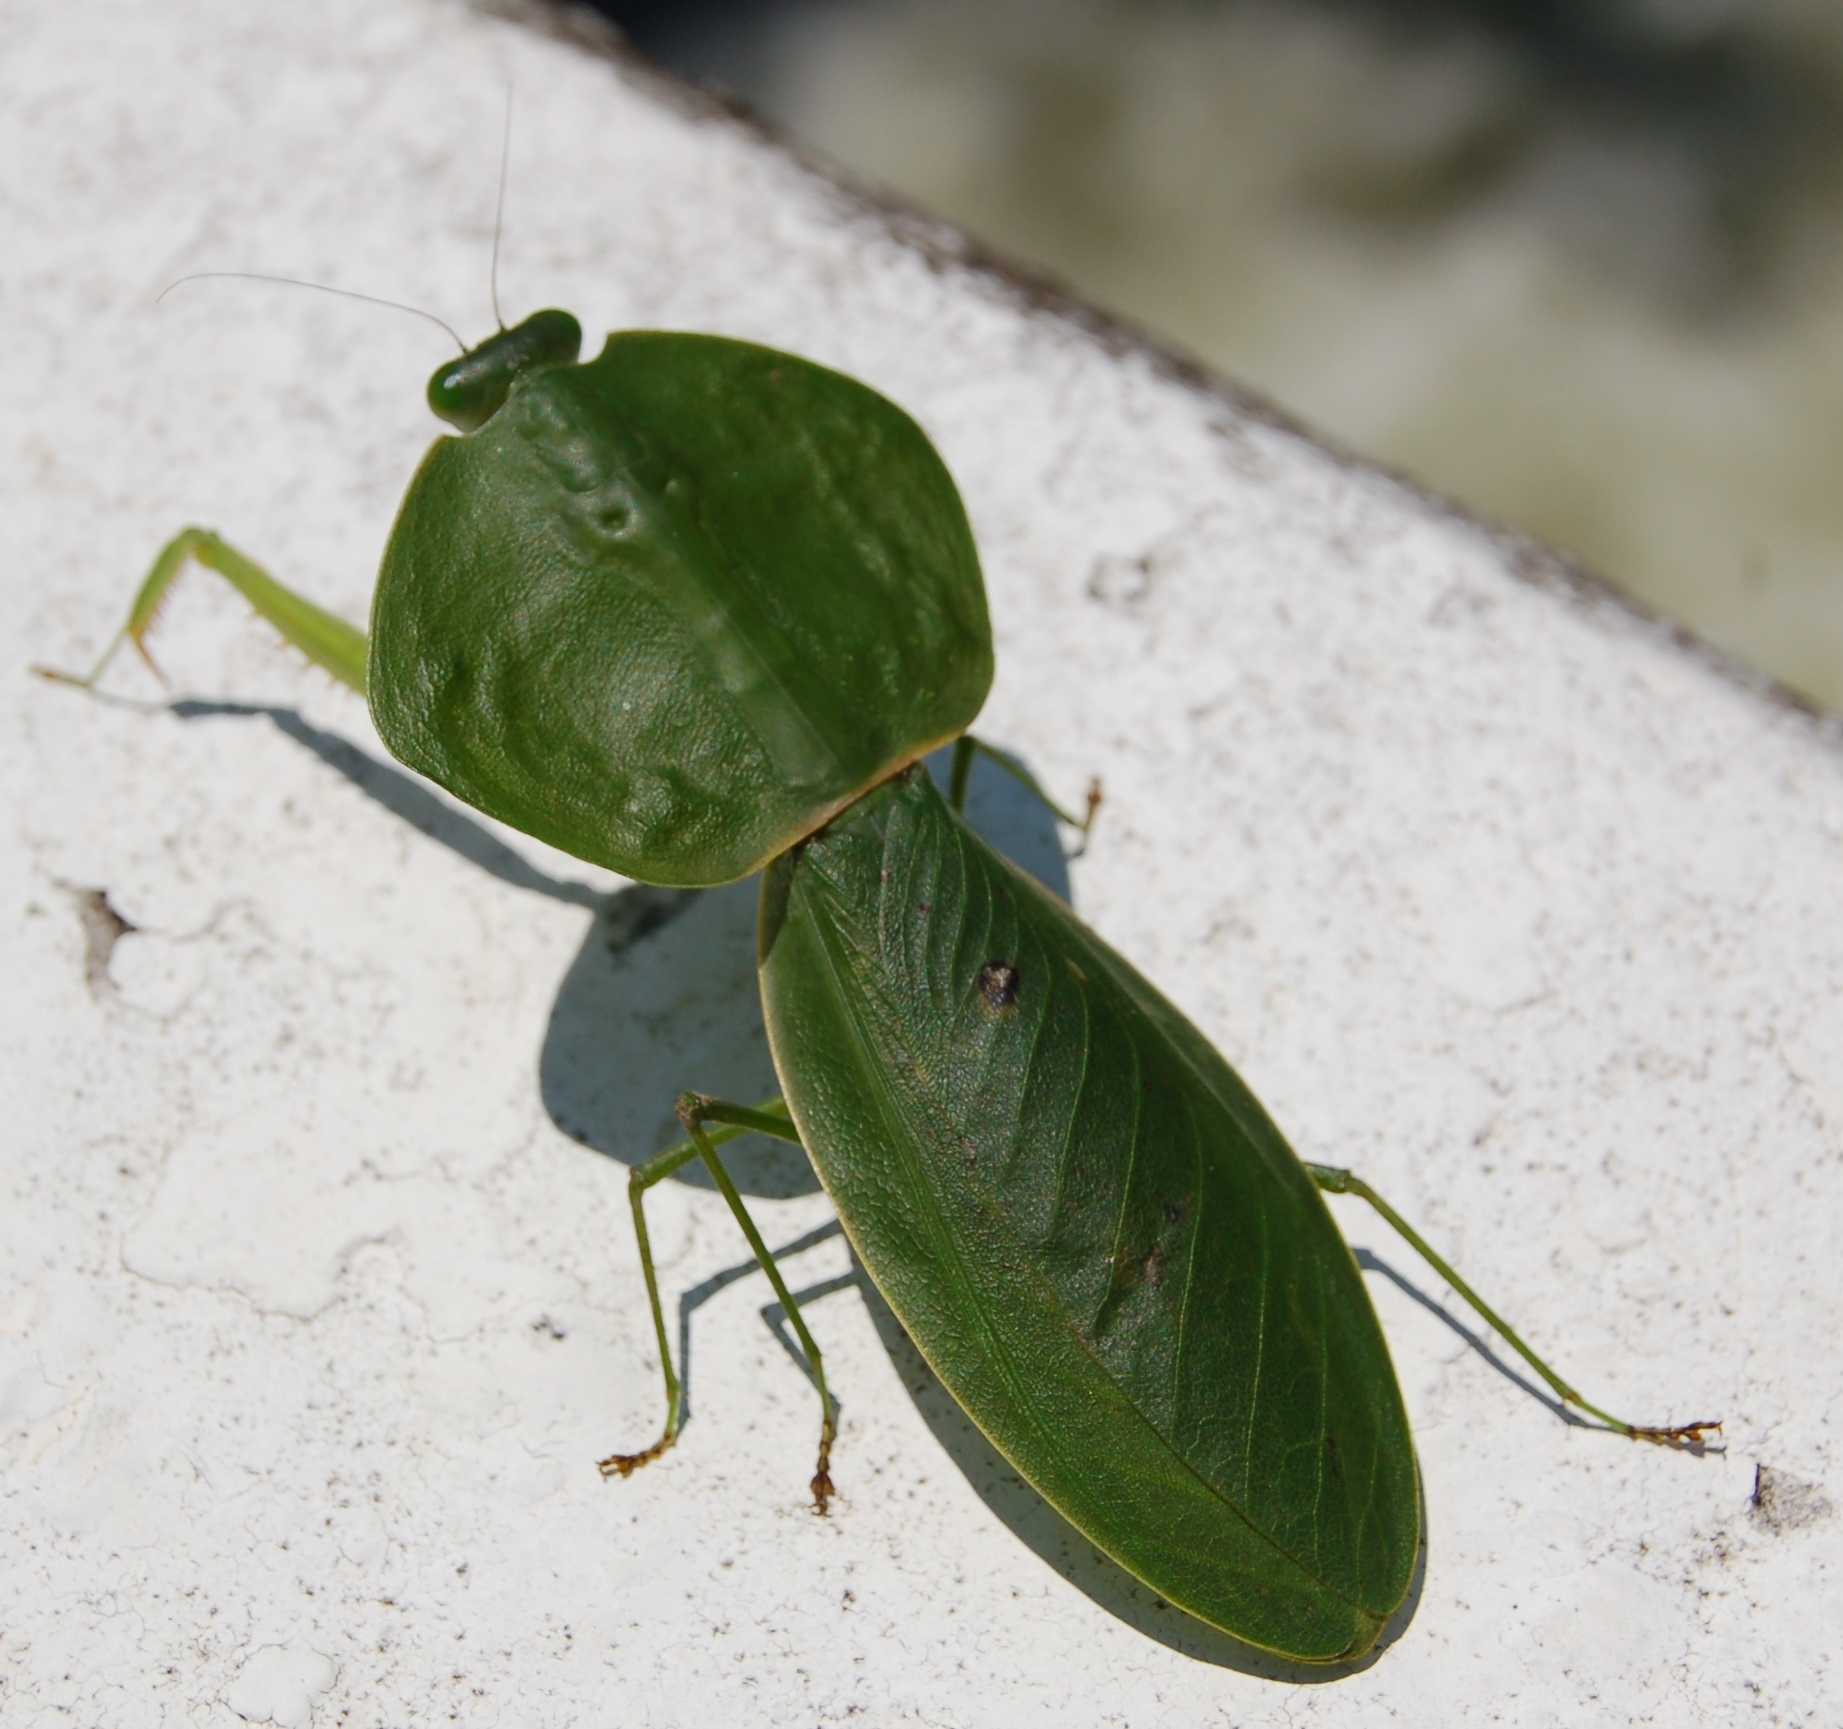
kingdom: Animalia
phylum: Arthropoda
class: Insecta
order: Mantodea
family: Mantidae
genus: Choeradodis
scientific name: Choeradodis rhombicollis
